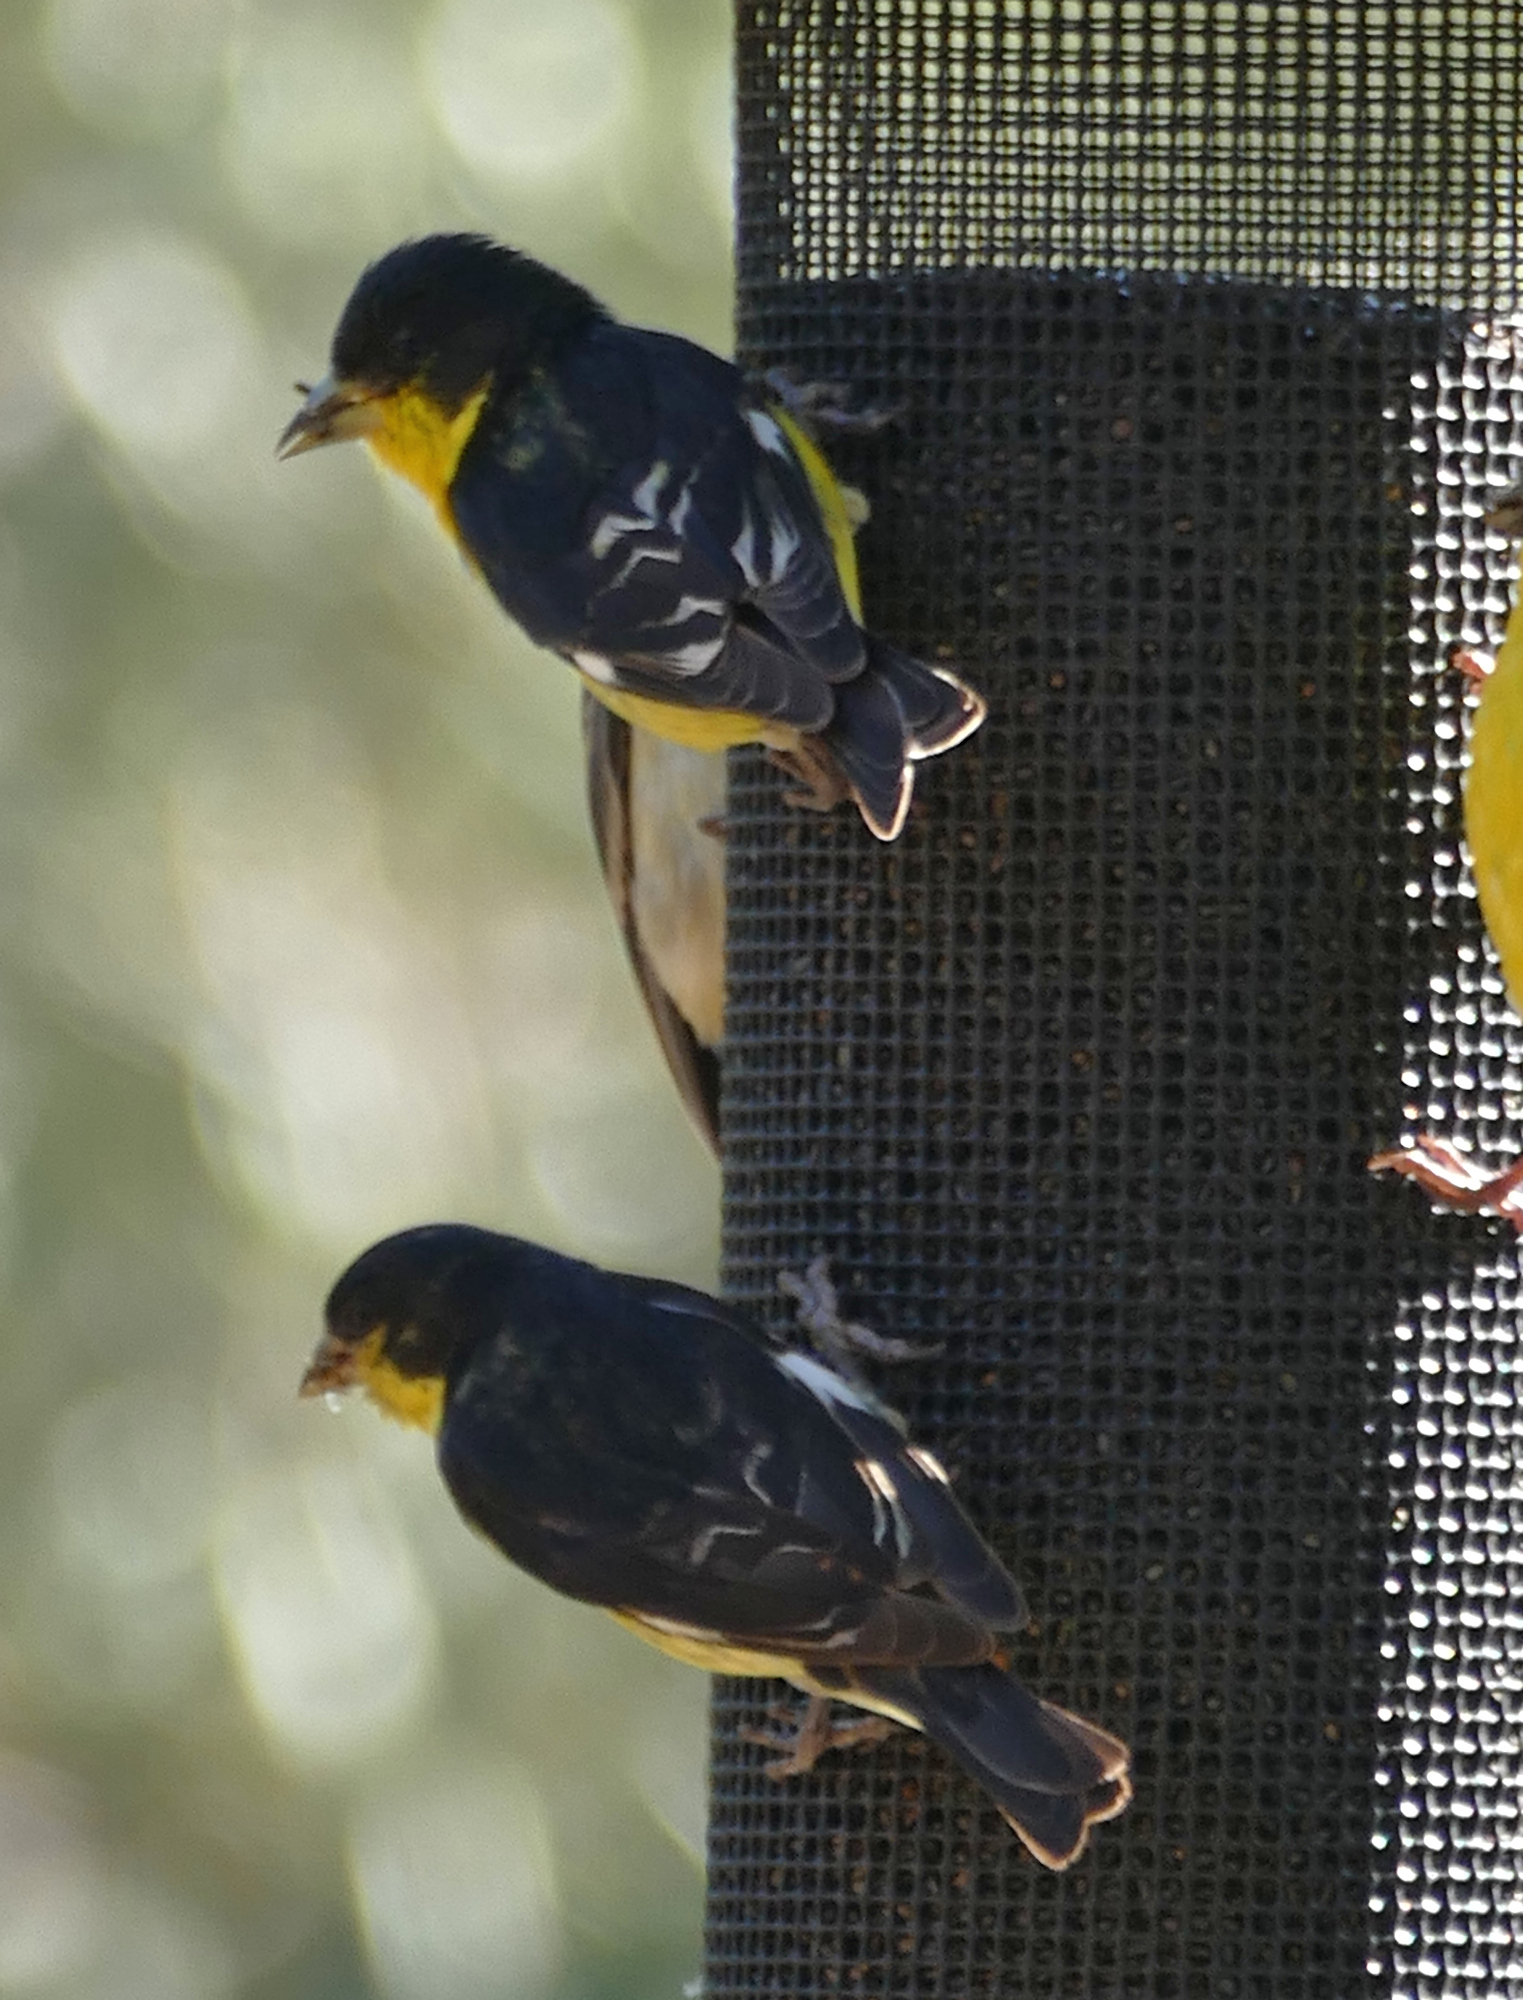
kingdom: Animalia
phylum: Chordata
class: Aves
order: Passeriformes
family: Fringillidae
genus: Spinus
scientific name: Spinus psaltria
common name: Lesser goldfinch
